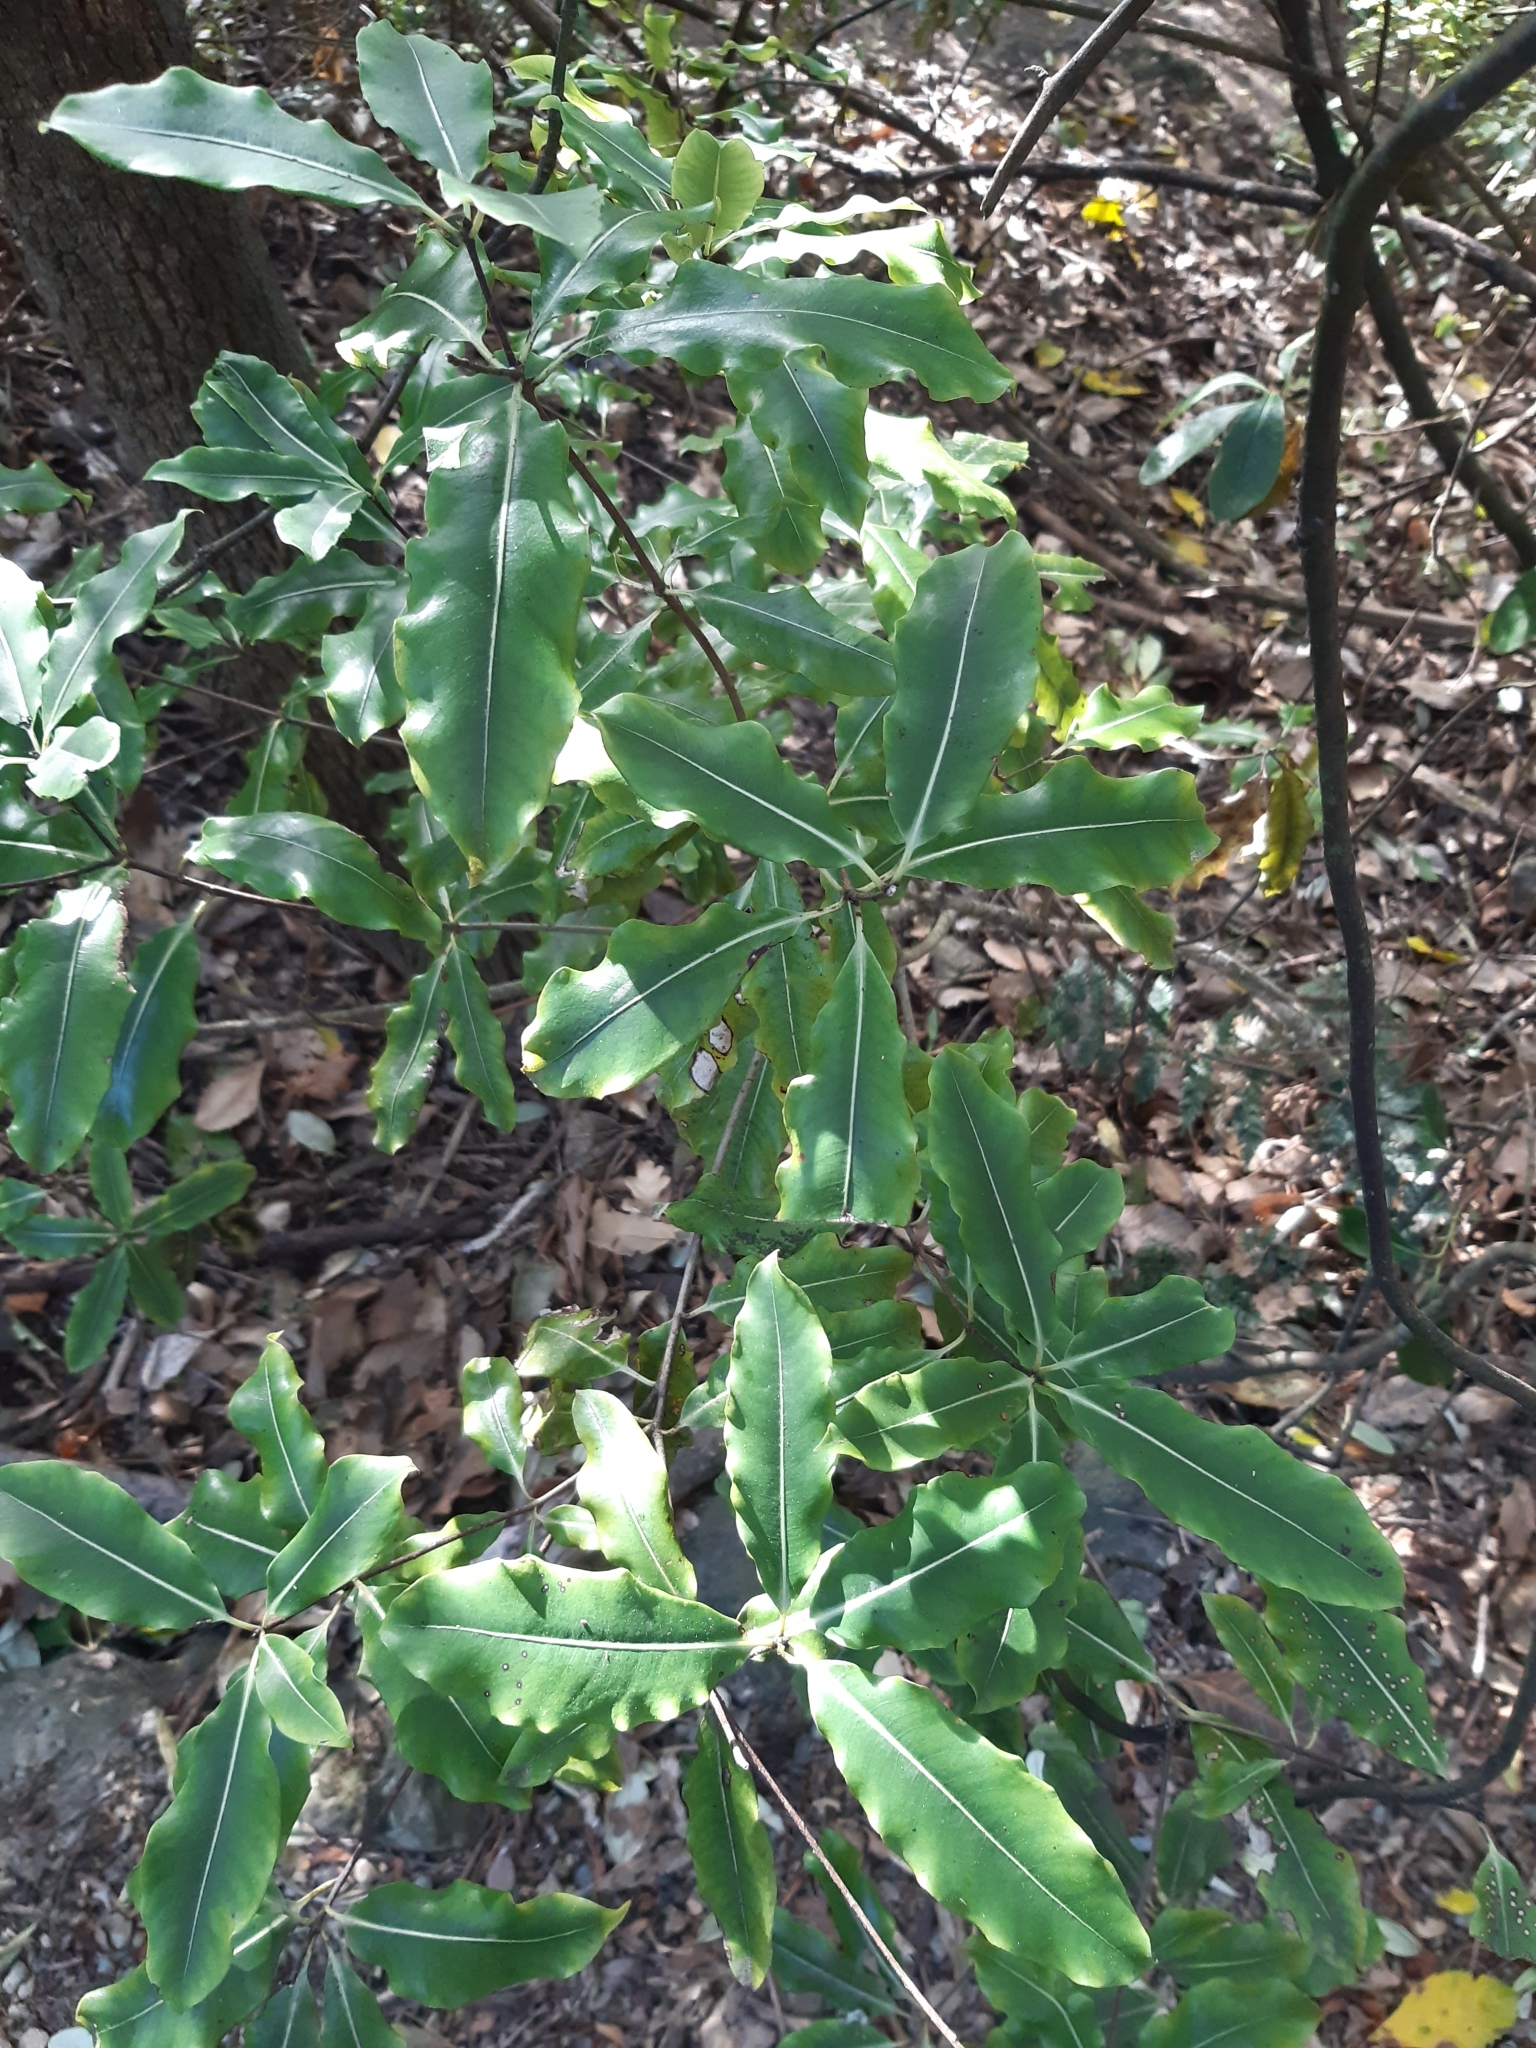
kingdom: Plantae
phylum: Tracheophyta
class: Magnoliopsida
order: Apiales
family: Pittosporaceae
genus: Pittosporum
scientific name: Pittosporum eugenioides
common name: Lemonwood
